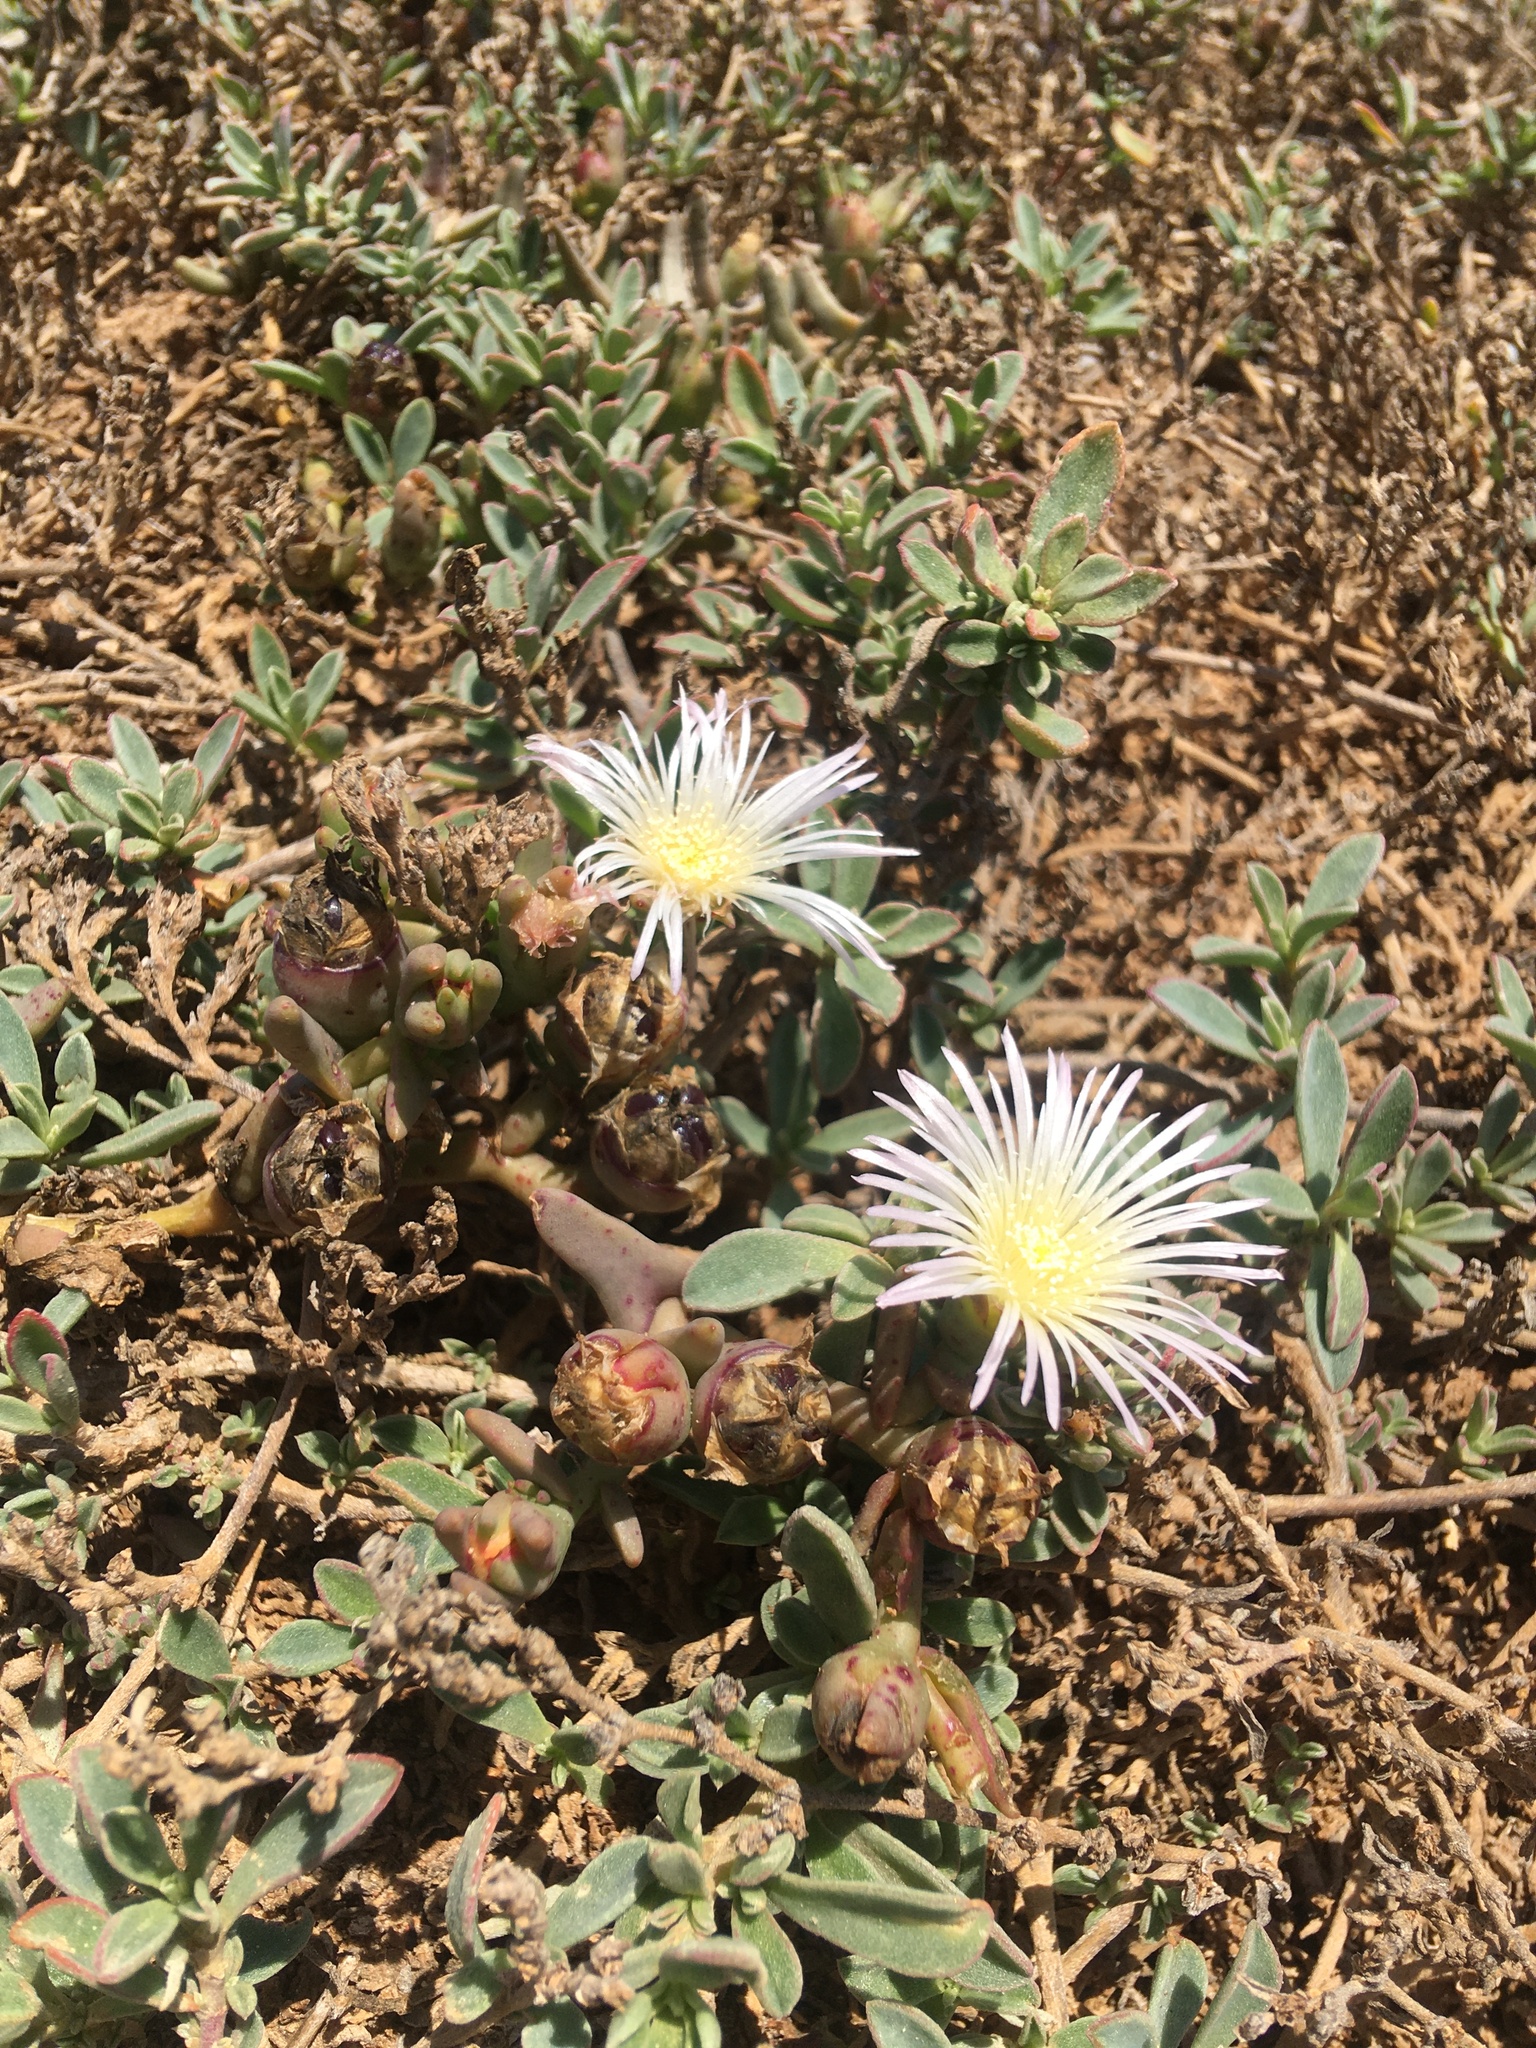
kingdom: Plantae
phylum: Tracheophyta
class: Magnoliopsida
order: Caryophyllales
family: Aizoaceae
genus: Mesembryanthemum
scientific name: Mesembryanthemum pallens
